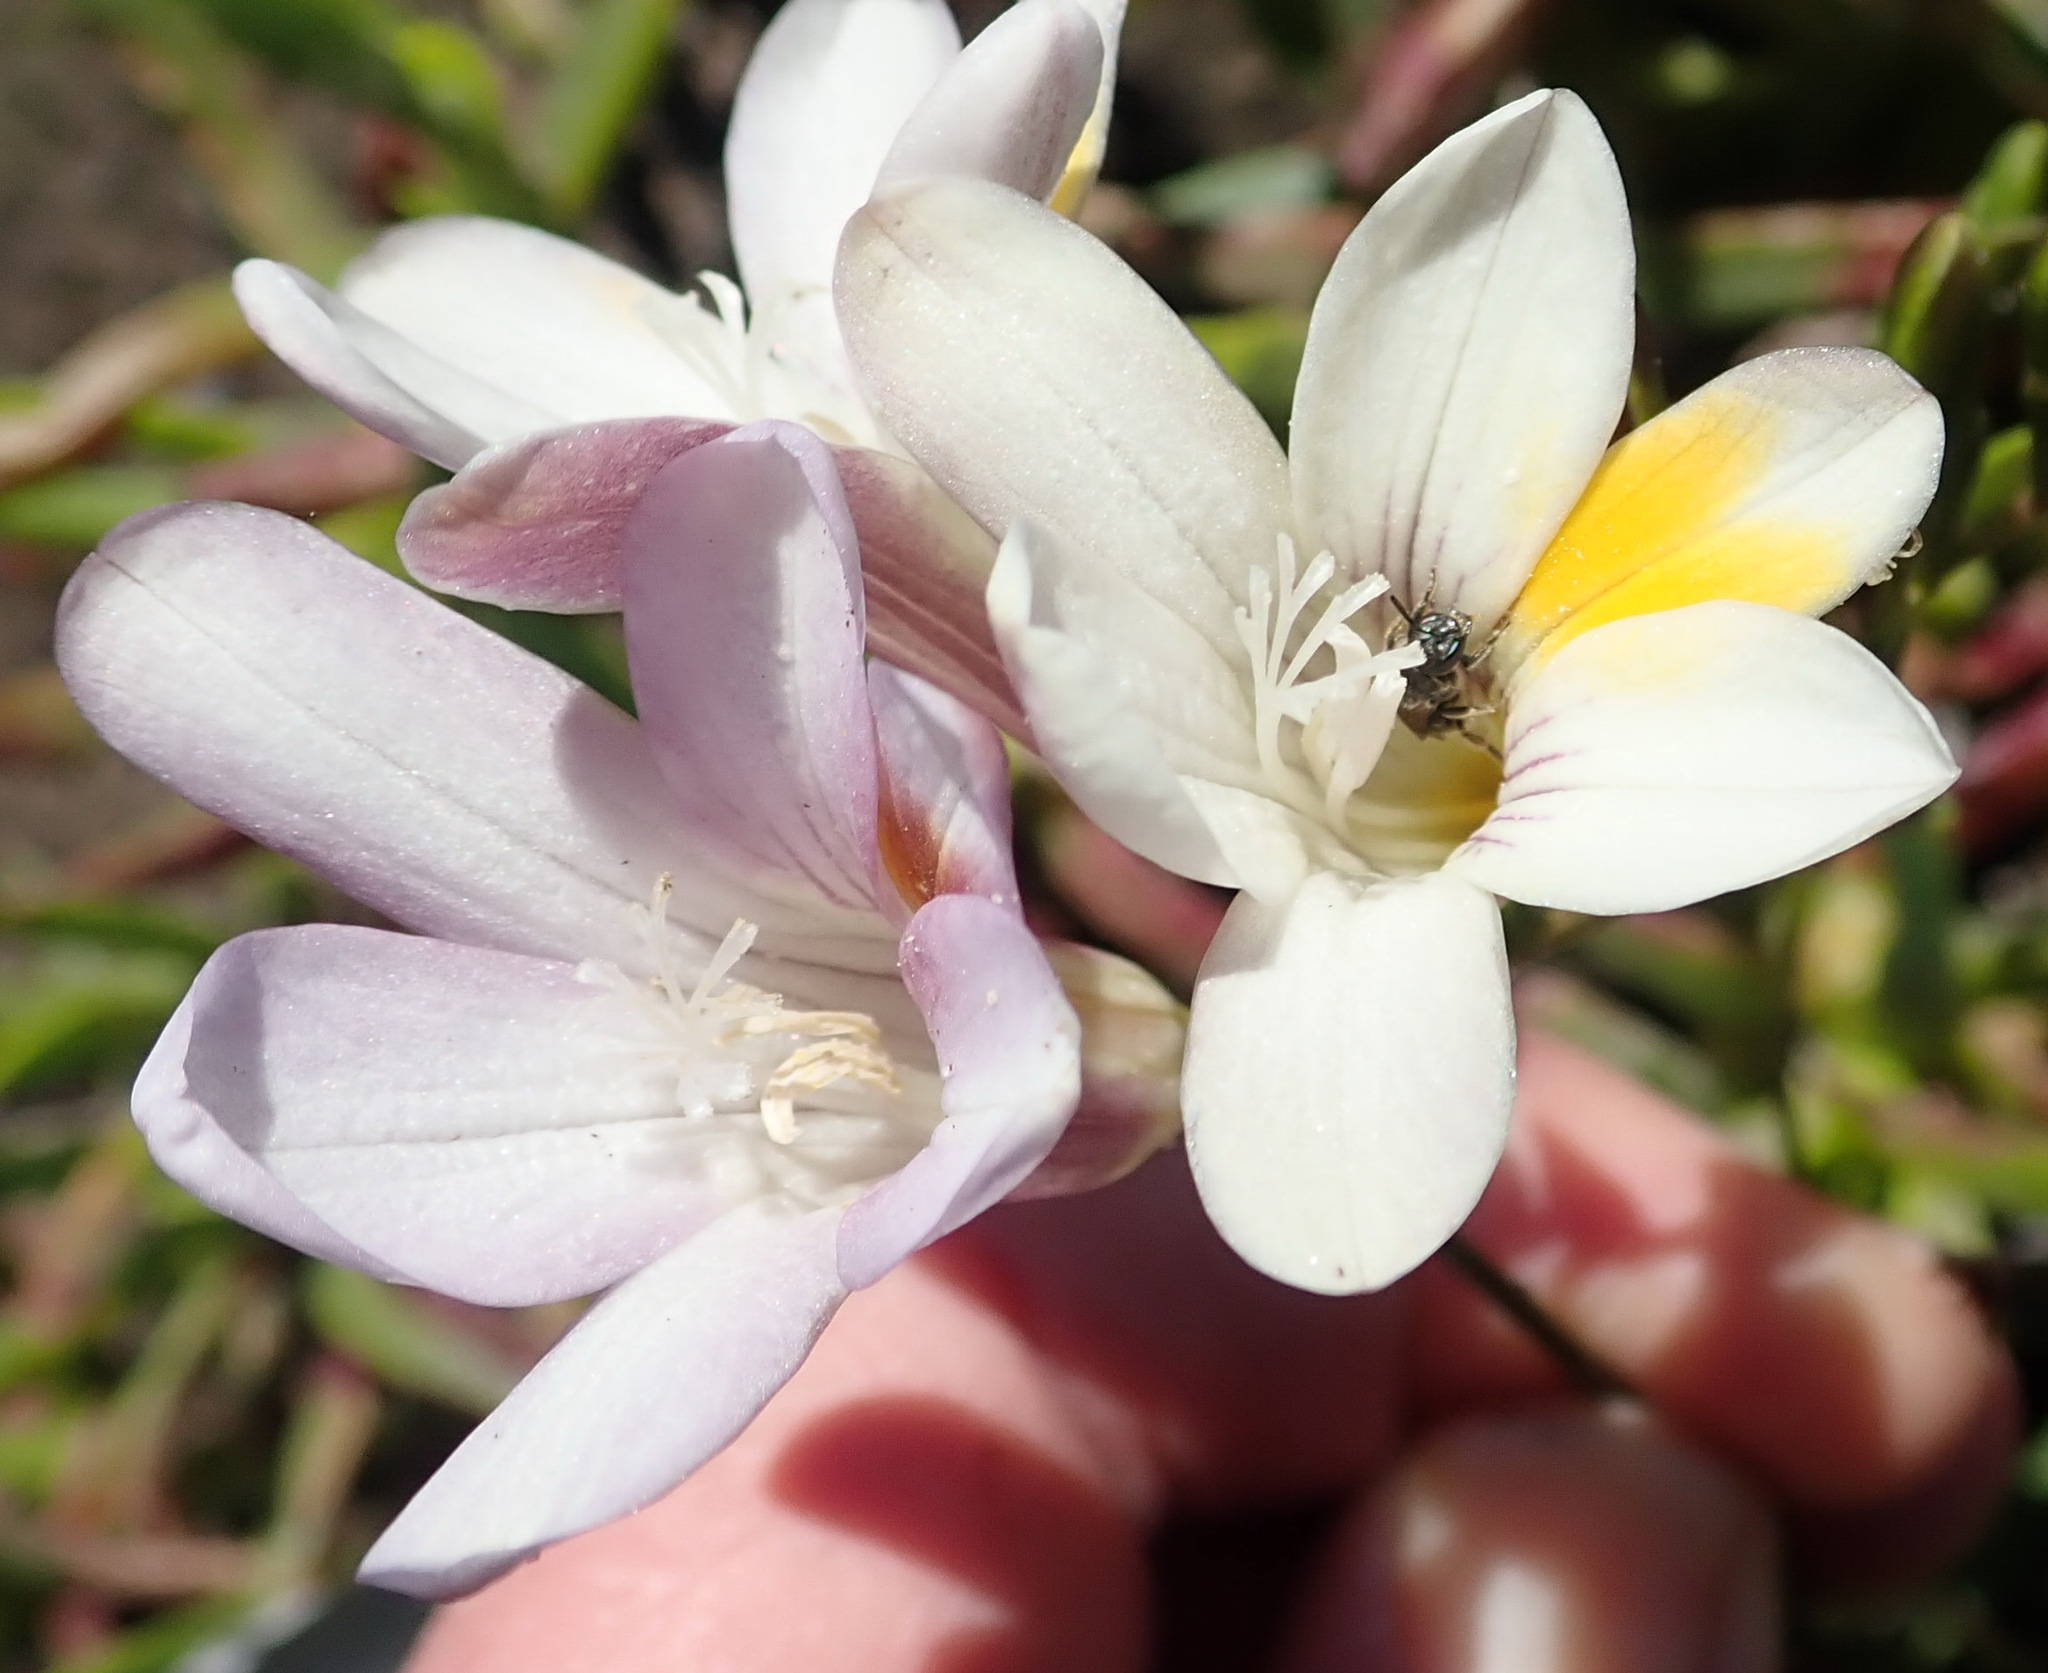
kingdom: Plantae
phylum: Tracheophyta
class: Liliopsida
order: Asparagales
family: Iridaceae
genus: Freesia
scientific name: Freesia leichtlinii
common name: Freesia
